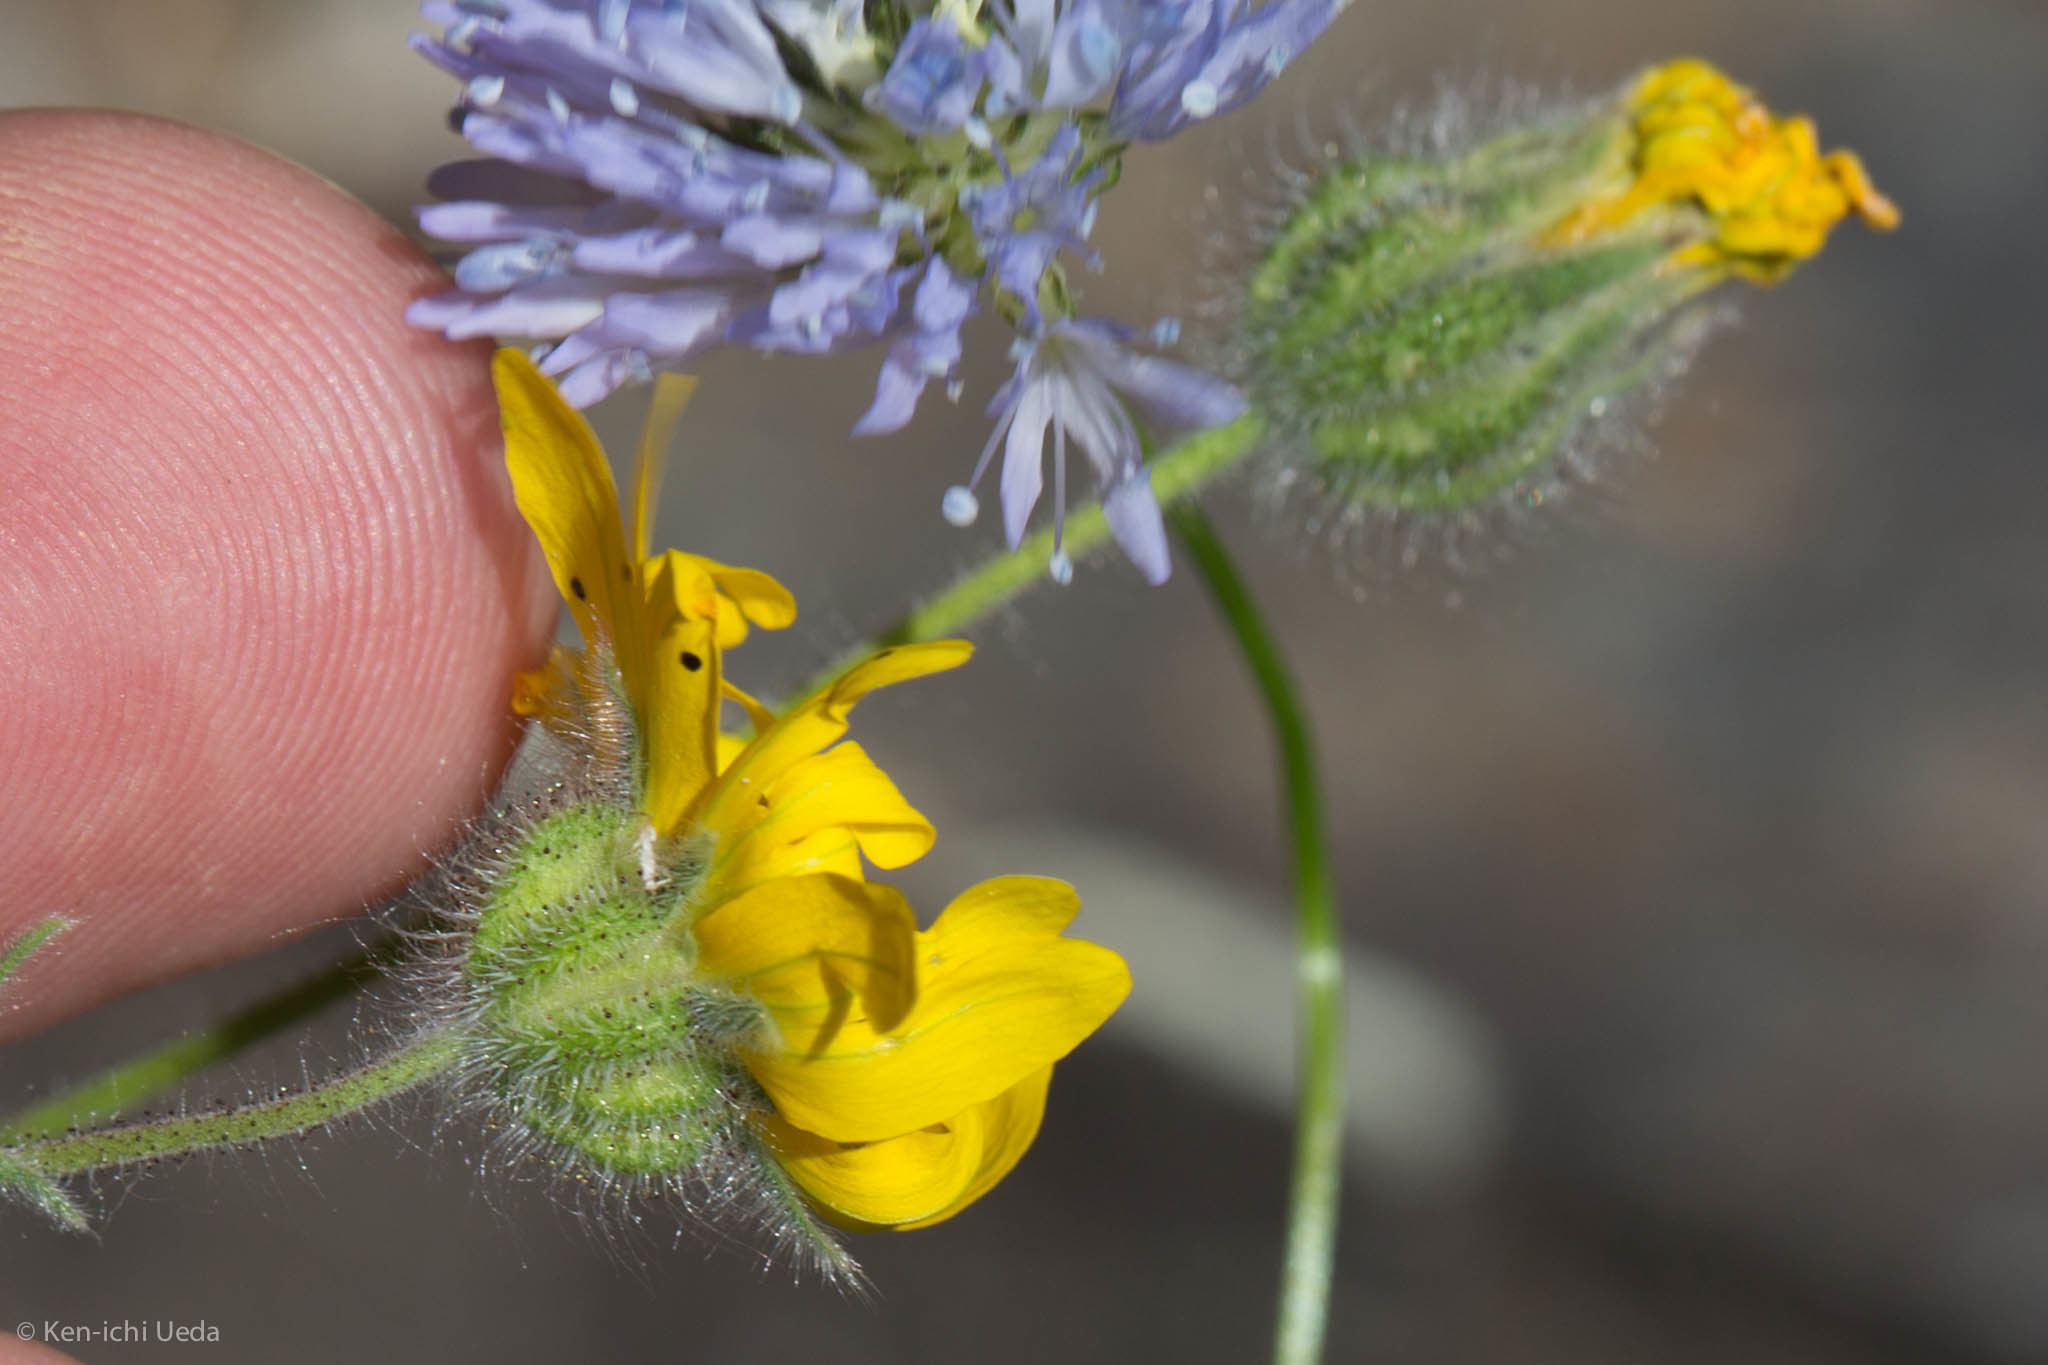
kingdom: Plantae
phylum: Tracheophyta
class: Magnoliopsida
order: Asterales
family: Asteraceae
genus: Madia
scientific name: Madia elegans
